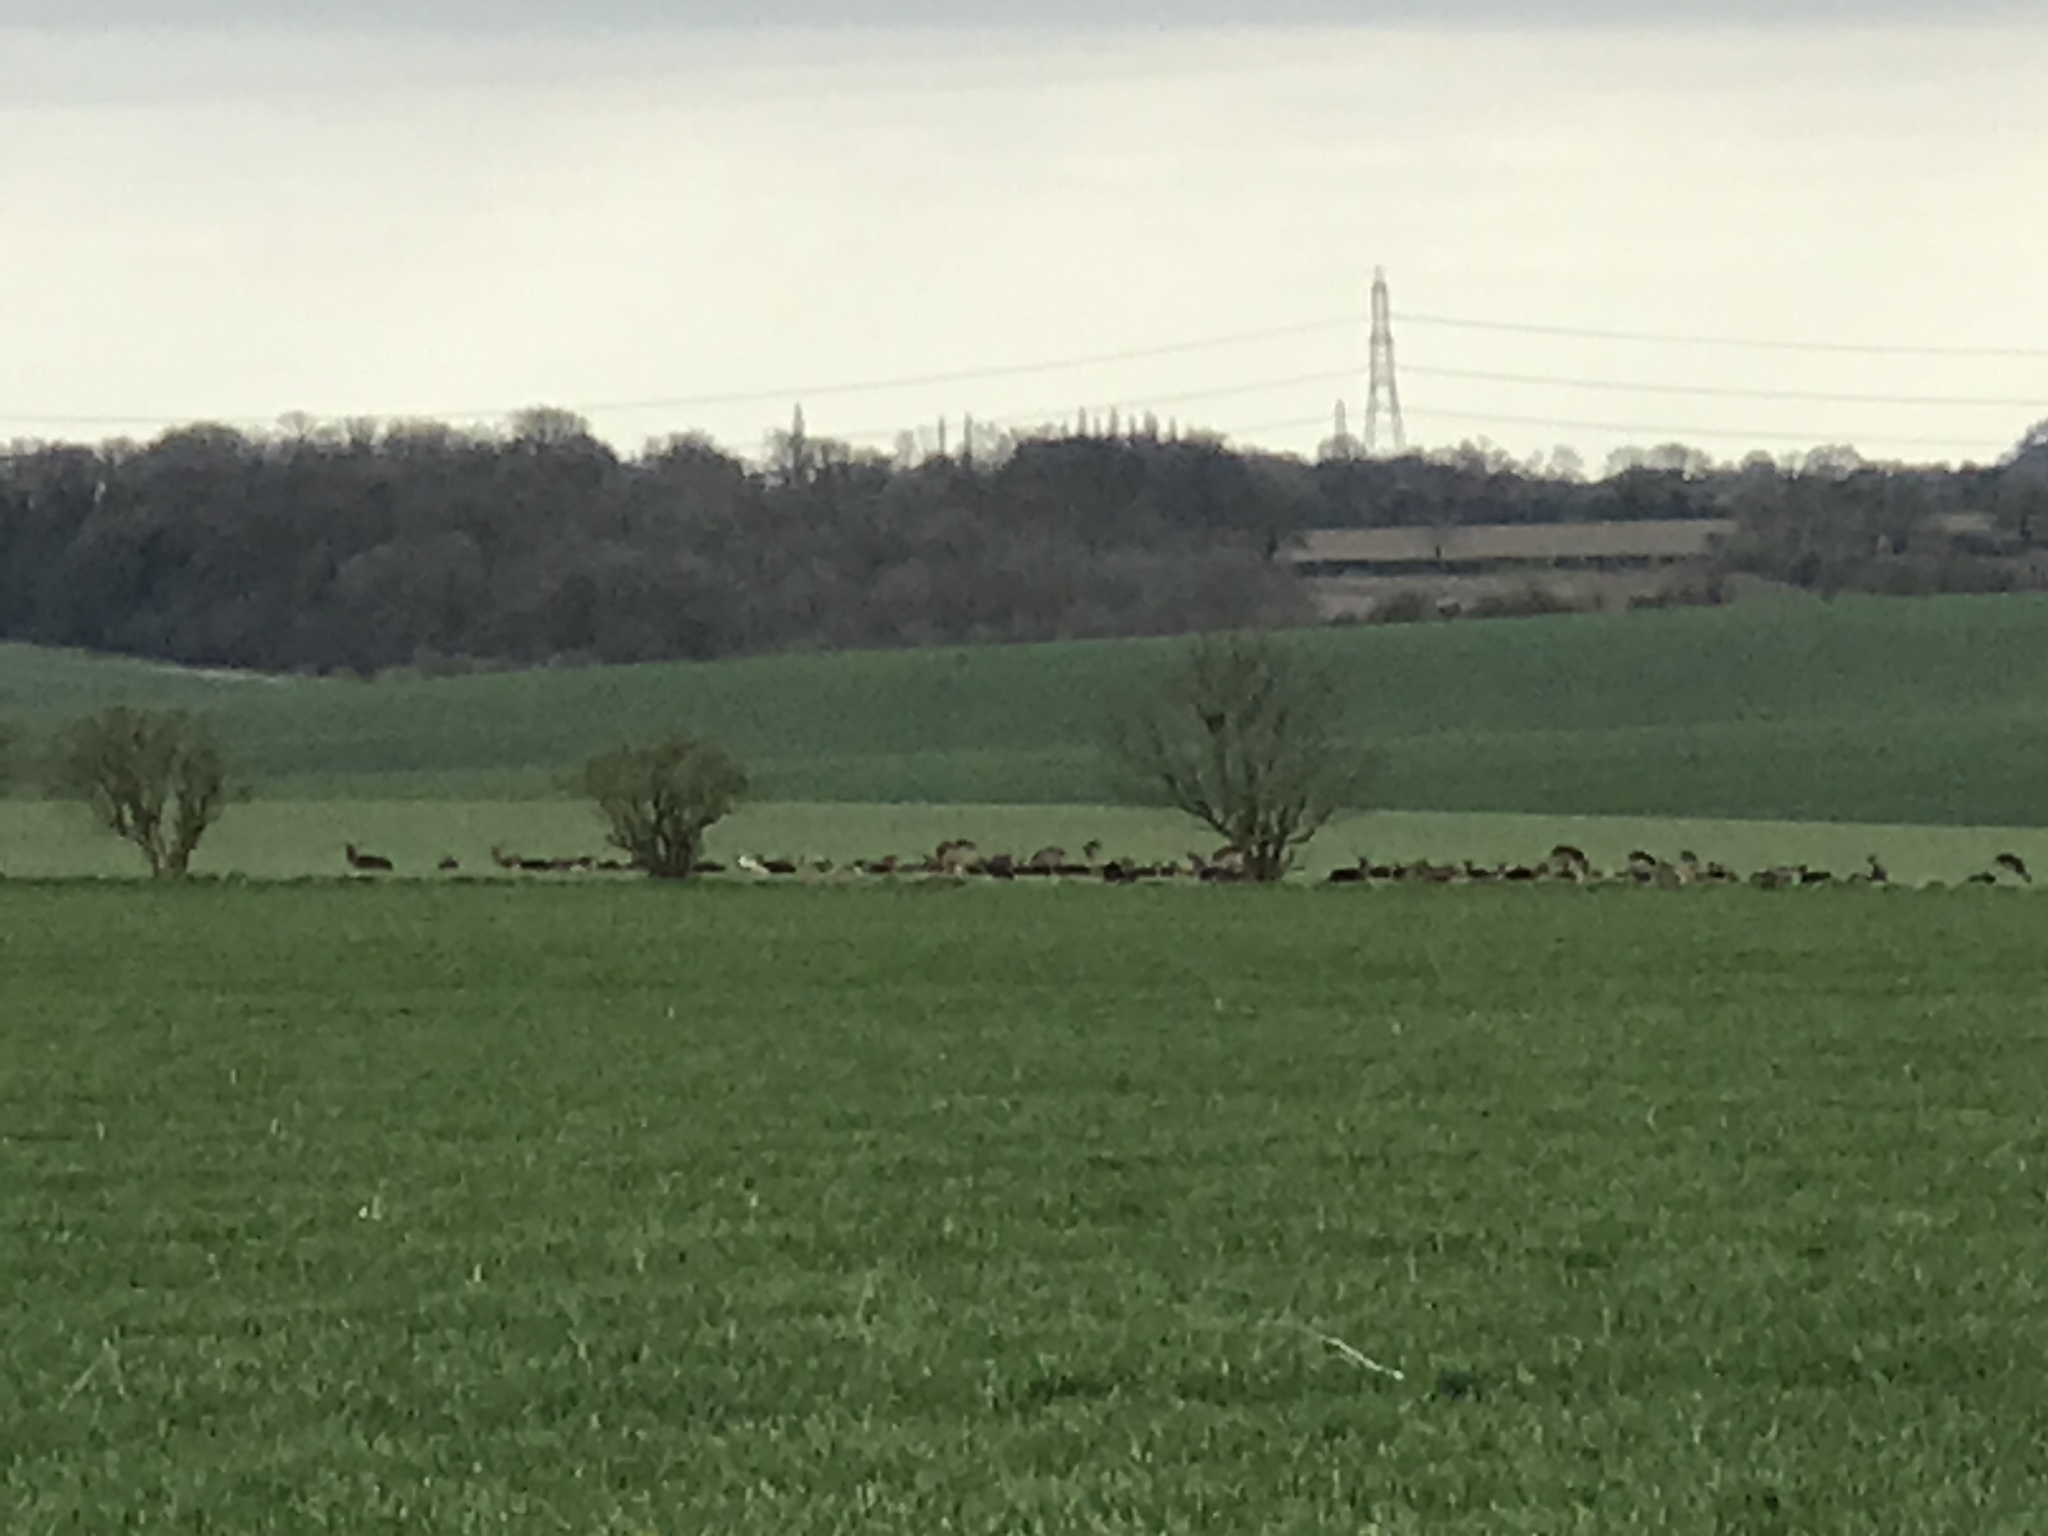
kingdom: Animalia
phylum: Chordata
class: Mammalia
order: Artiodactyla
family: Cervidae
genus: Dama
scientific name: Dama dama
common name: Fallow deer
